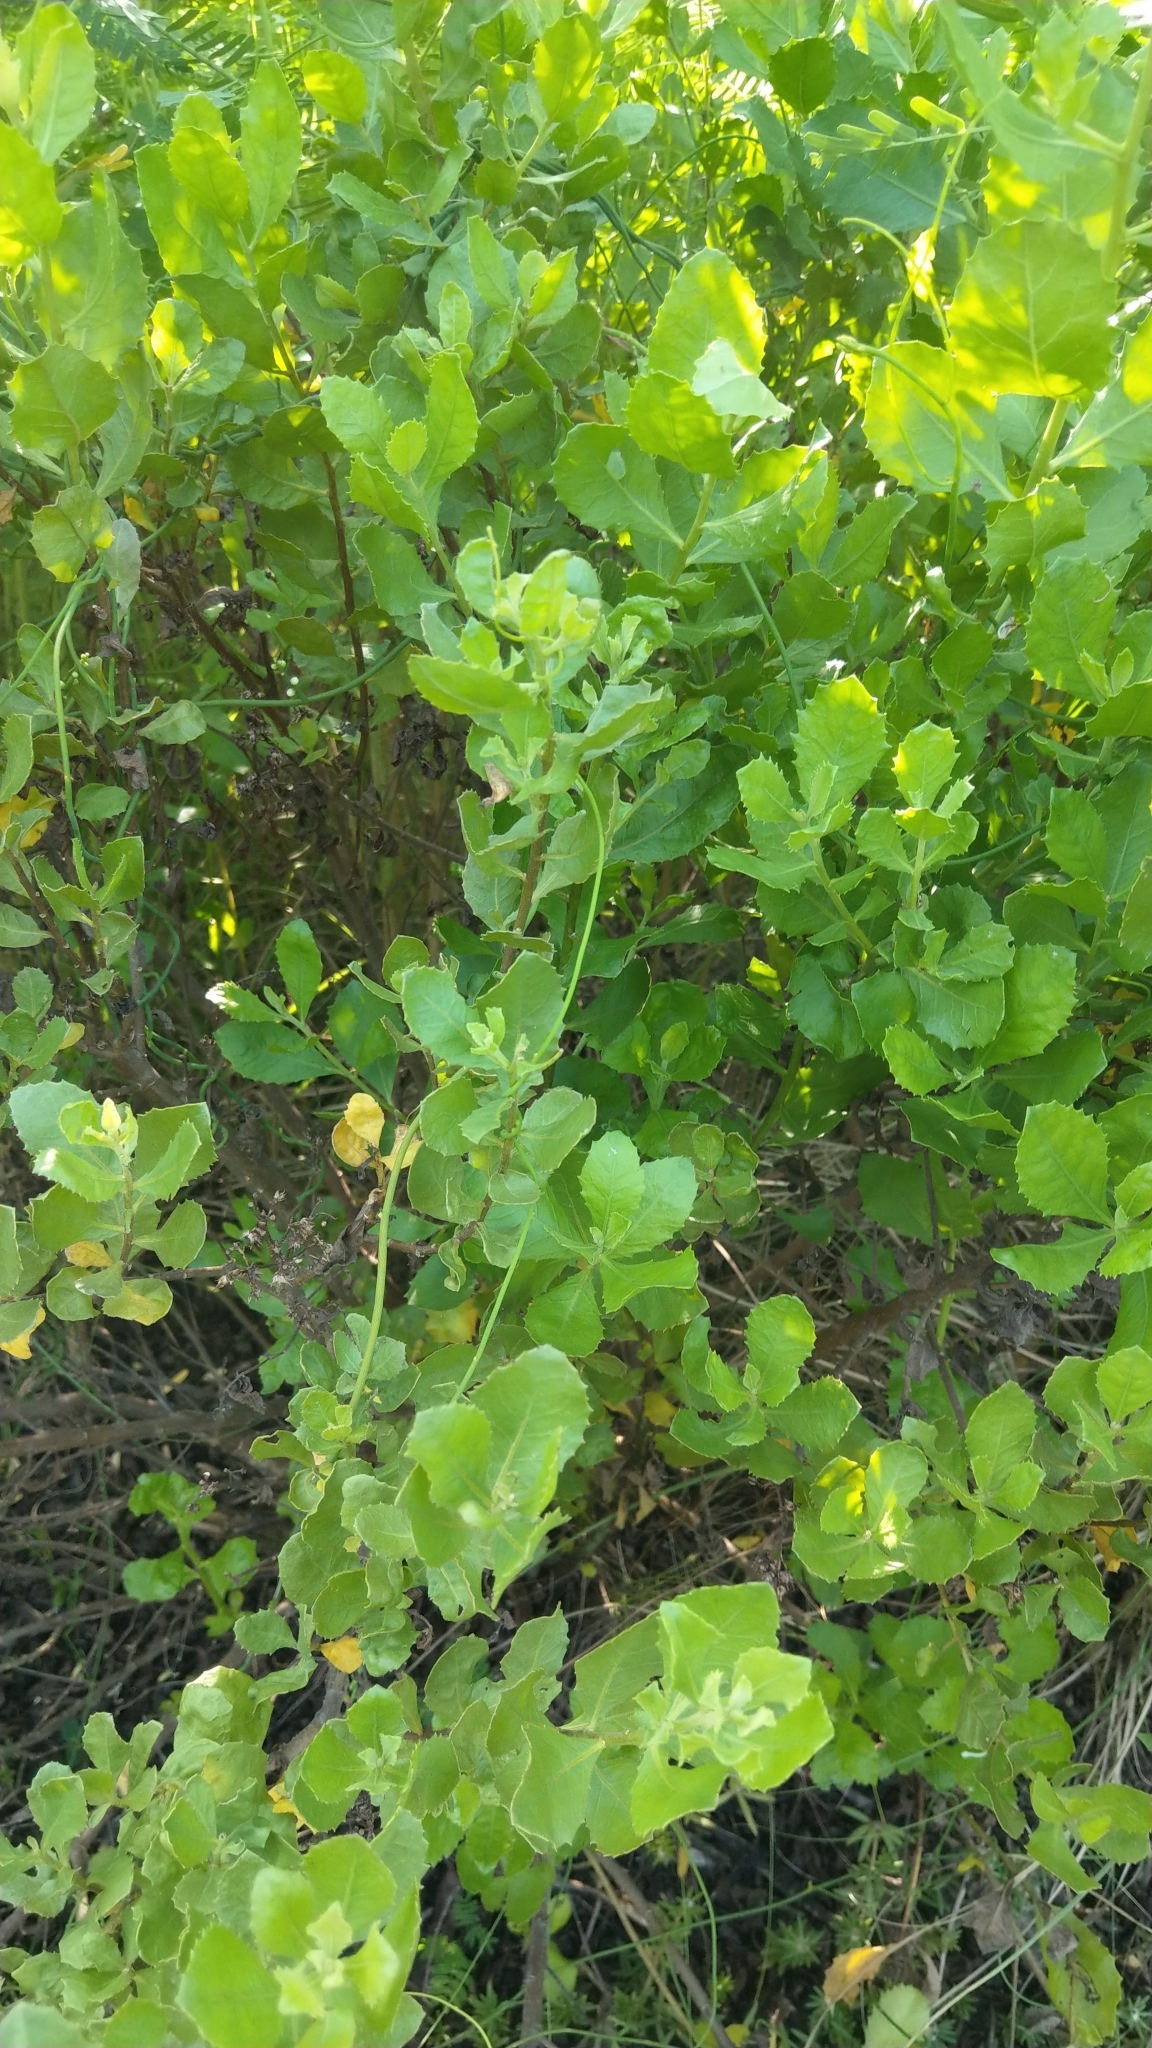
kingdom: Plantae
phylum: Tracheophyta
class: Magnoliopsida
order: Asterales
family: Asteraceae
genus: Pluchea
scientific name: Pluchea indica
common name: Indian fleabane
